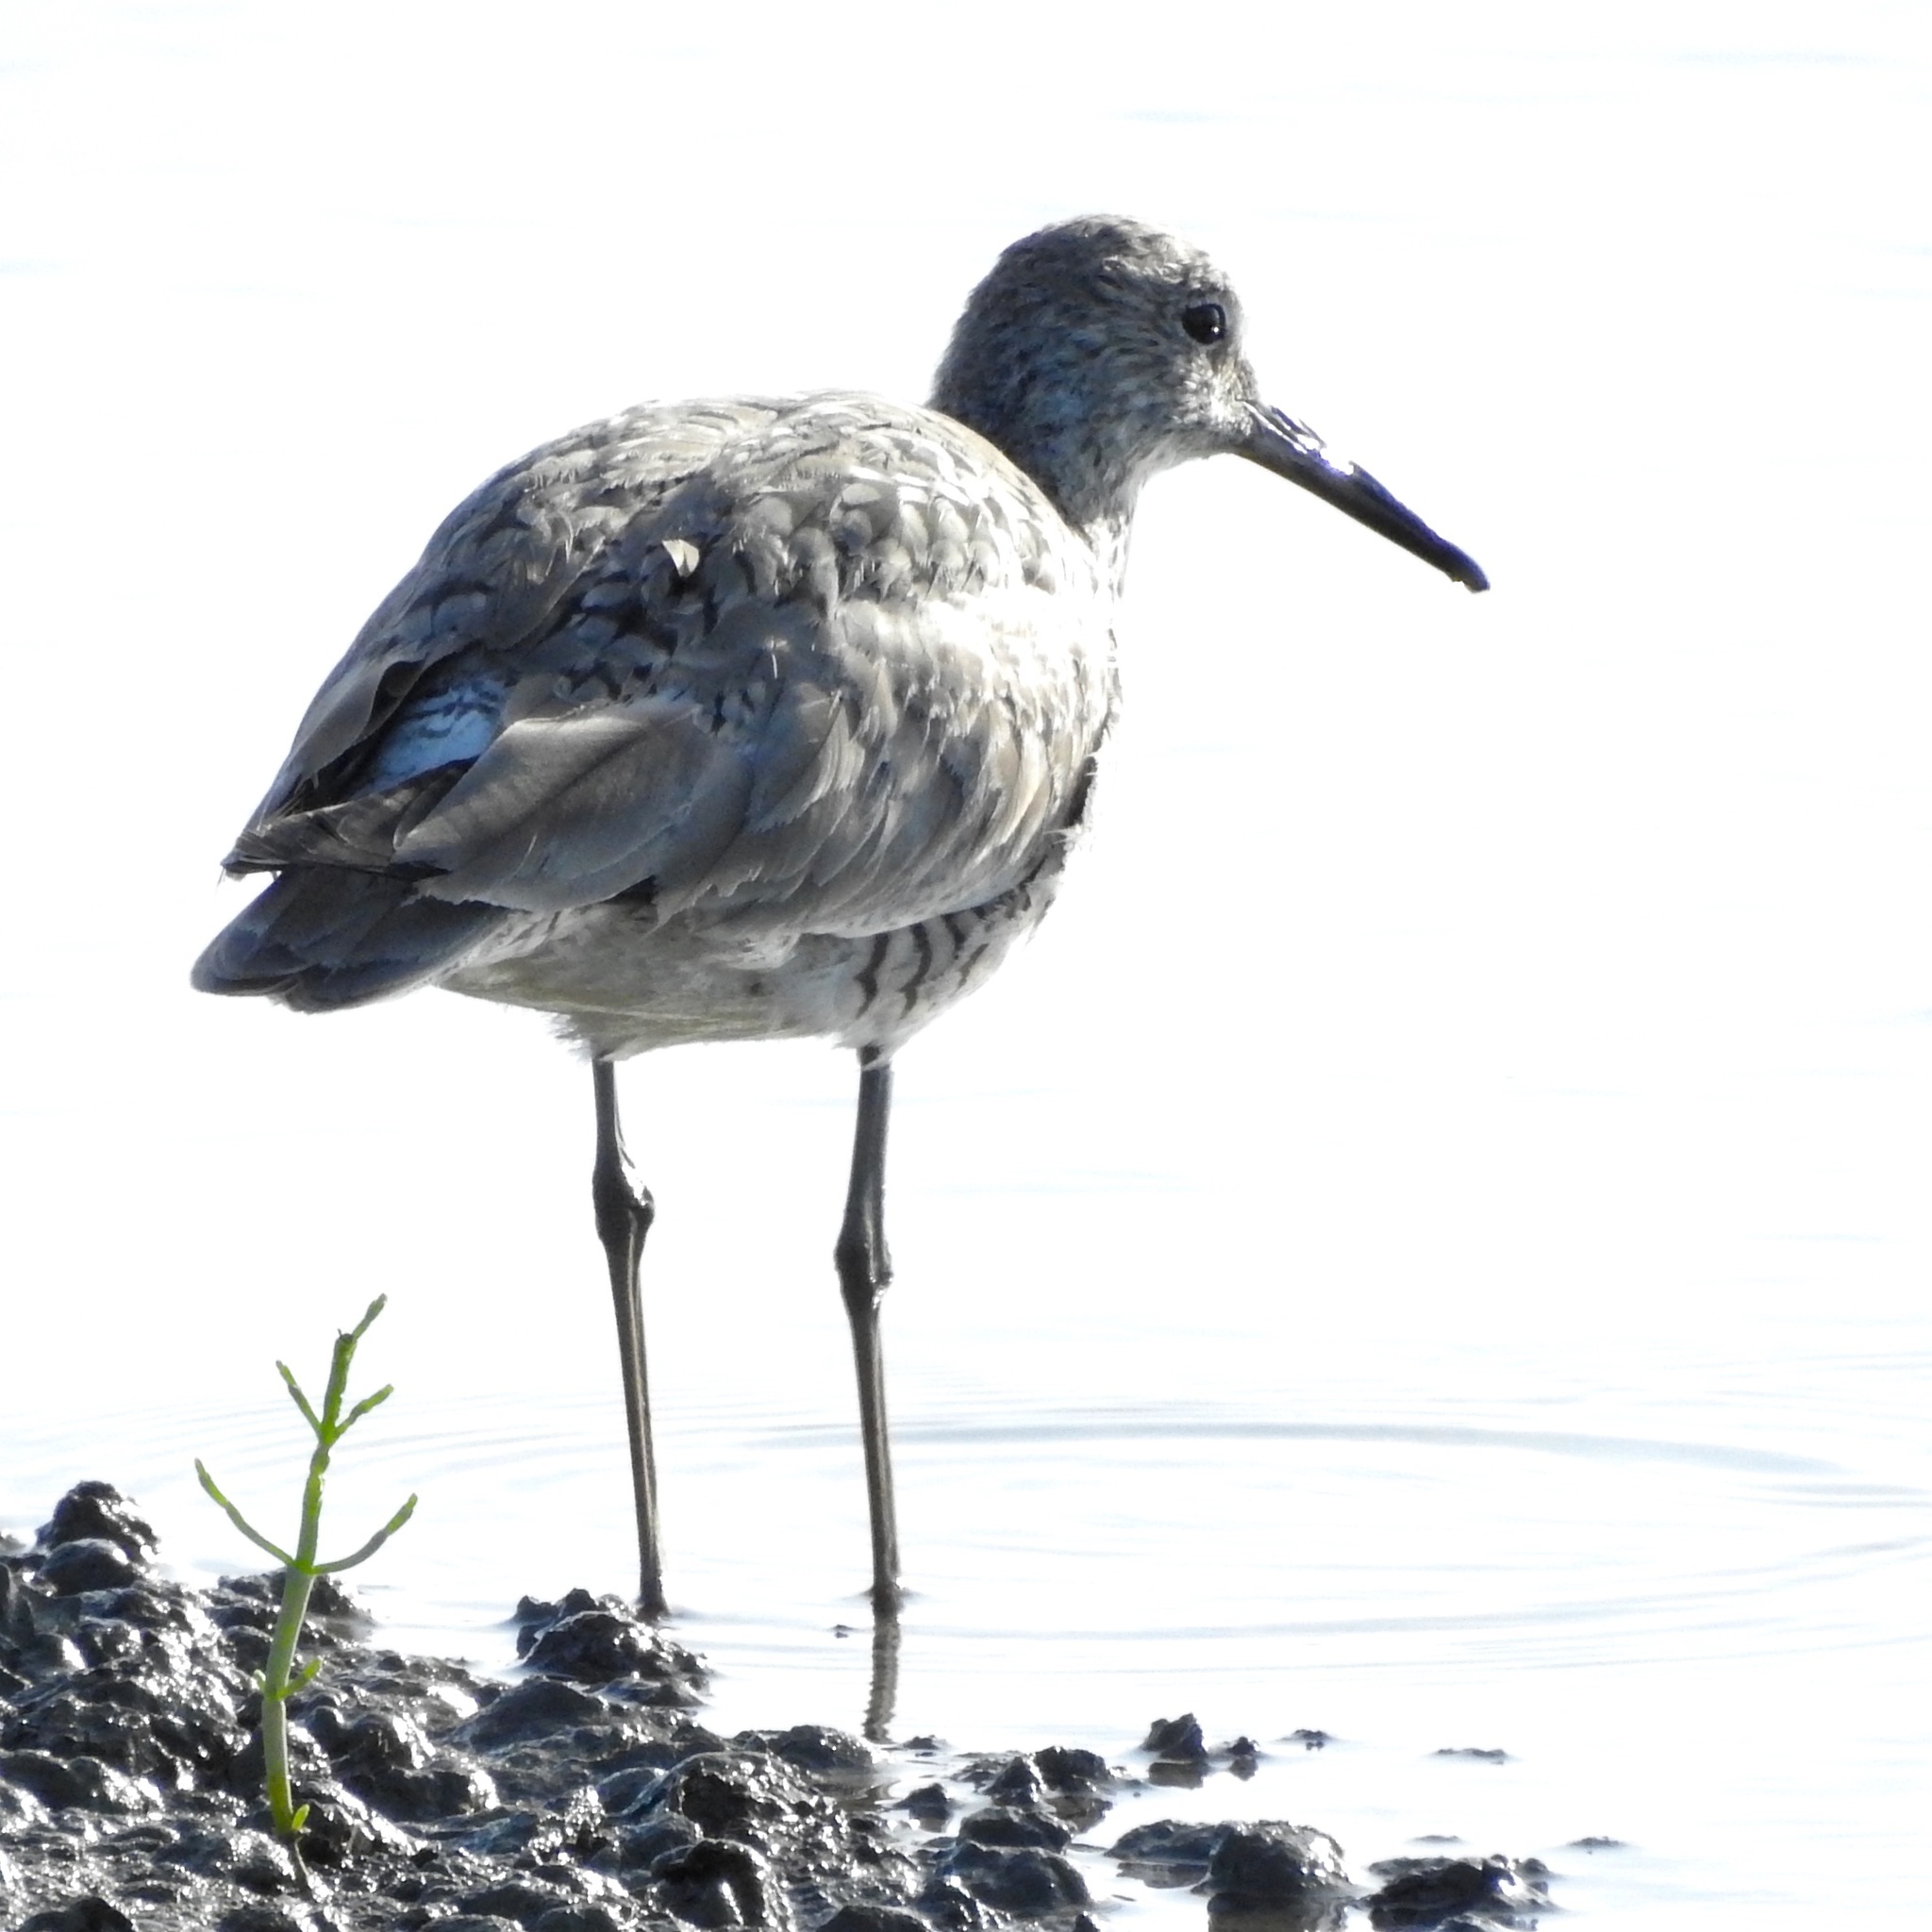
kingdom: Animalia
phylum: Chordata
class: Aves
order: Charadriiformes
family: Scolopacidae
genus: Tringa
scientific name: Tringa semipalmata
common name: Willet
